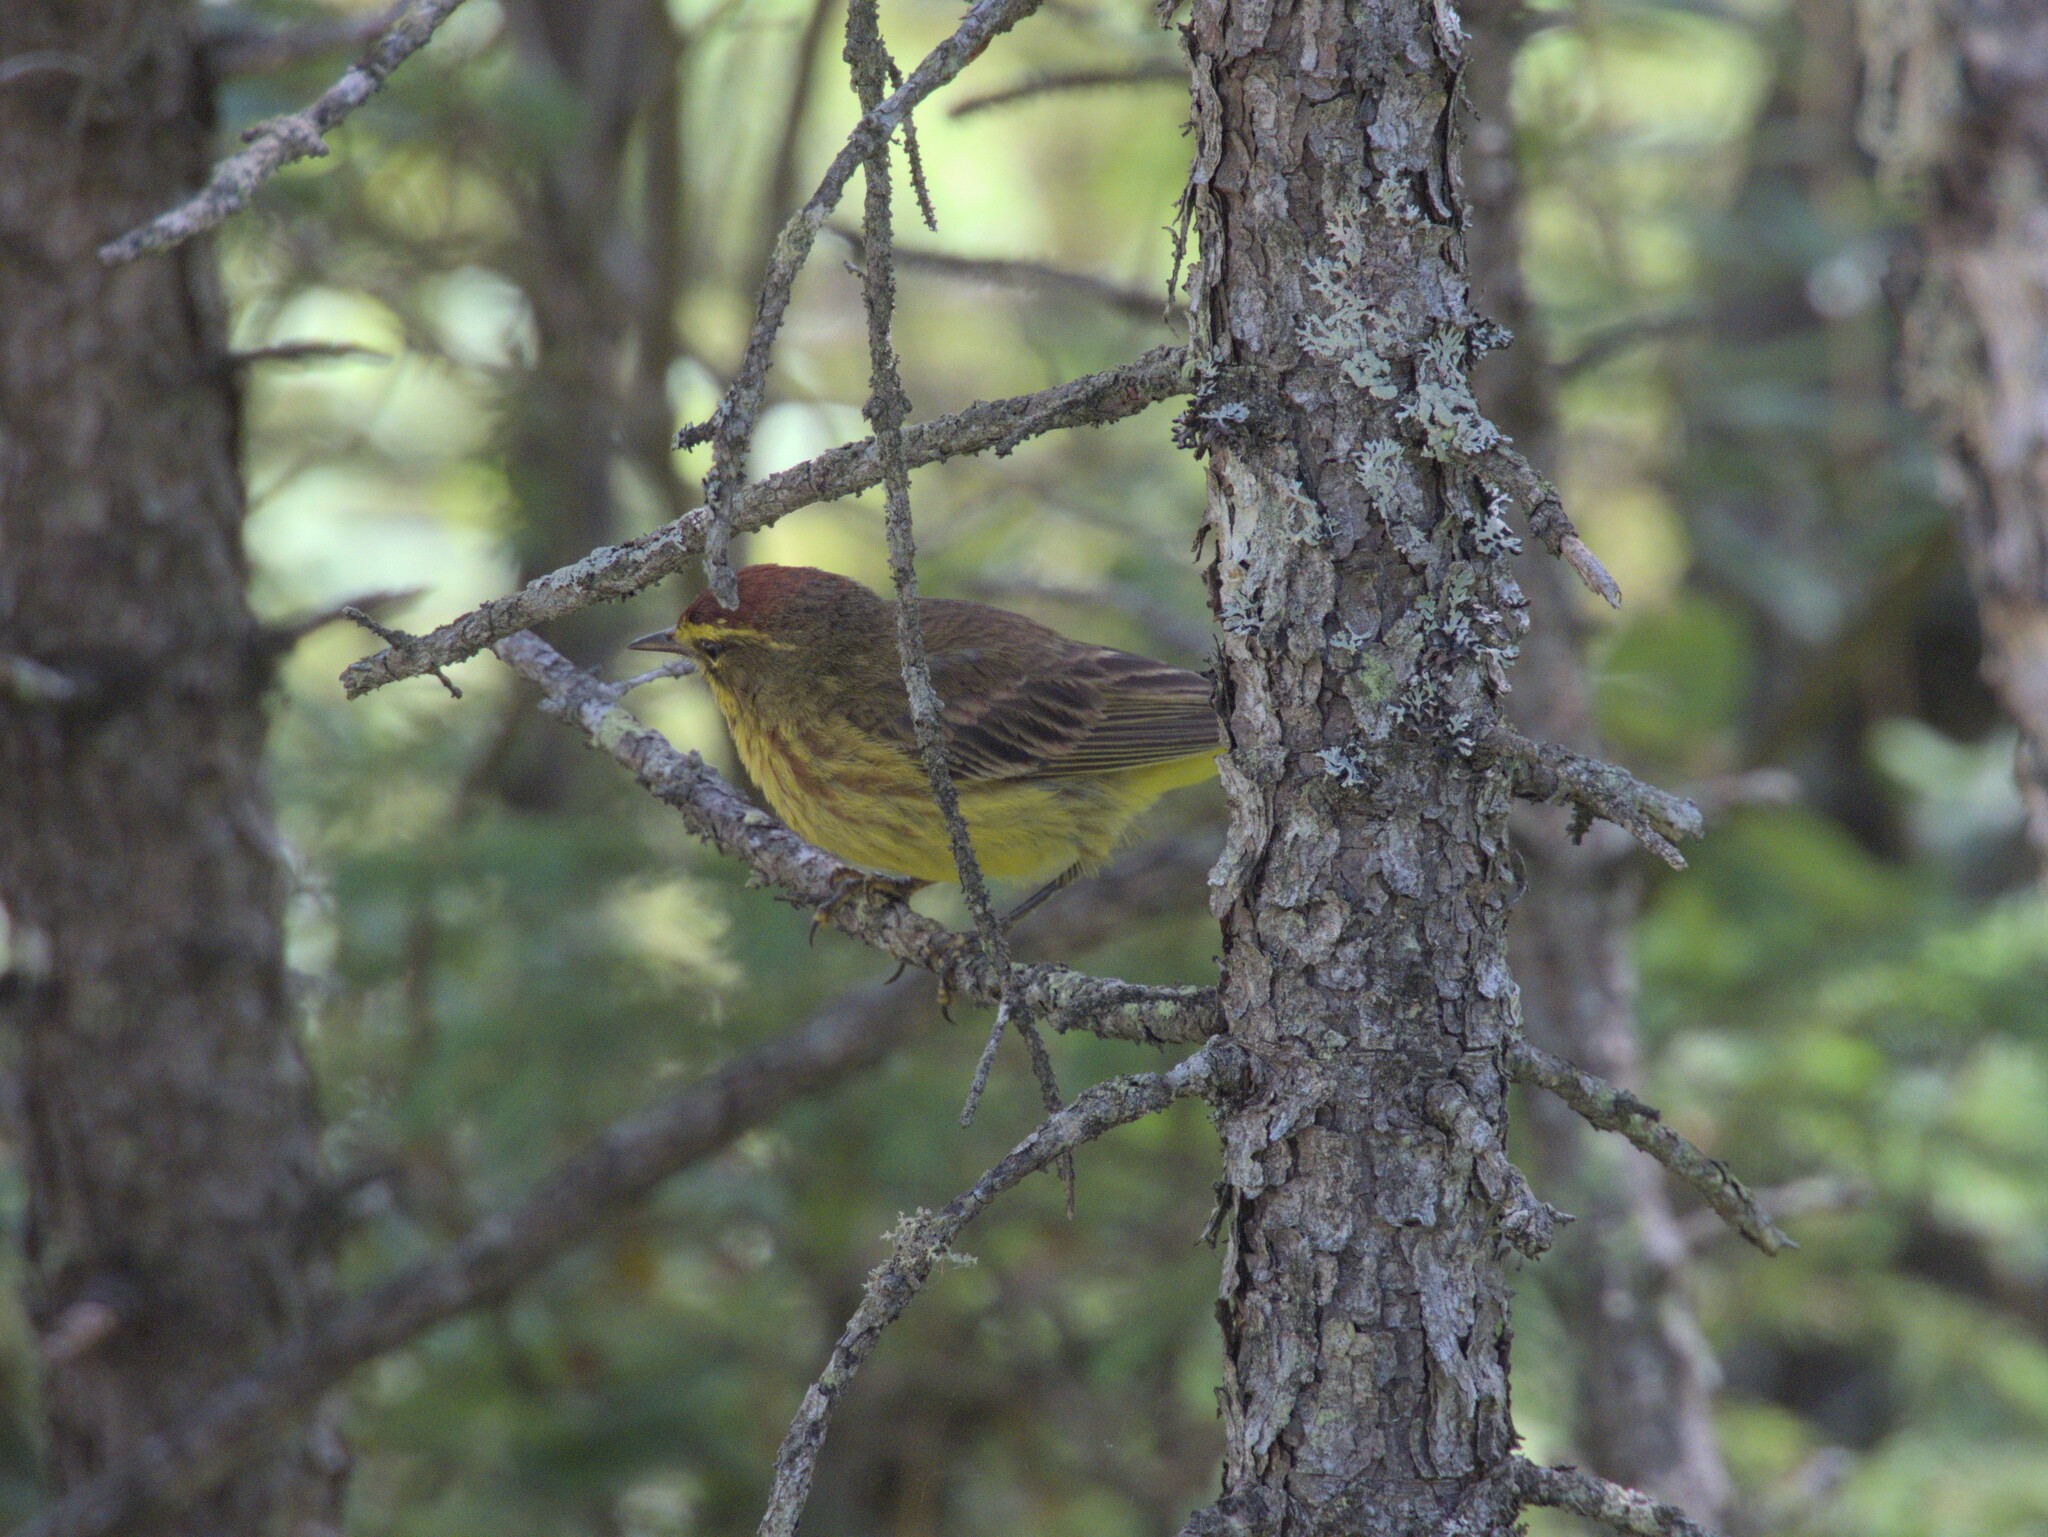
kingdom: Animalia
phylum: Chordata
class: Aves
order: Passeriformes
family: Parulidae
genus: Setophaga
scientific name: Setophaga palmarum
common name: Palm warbler
